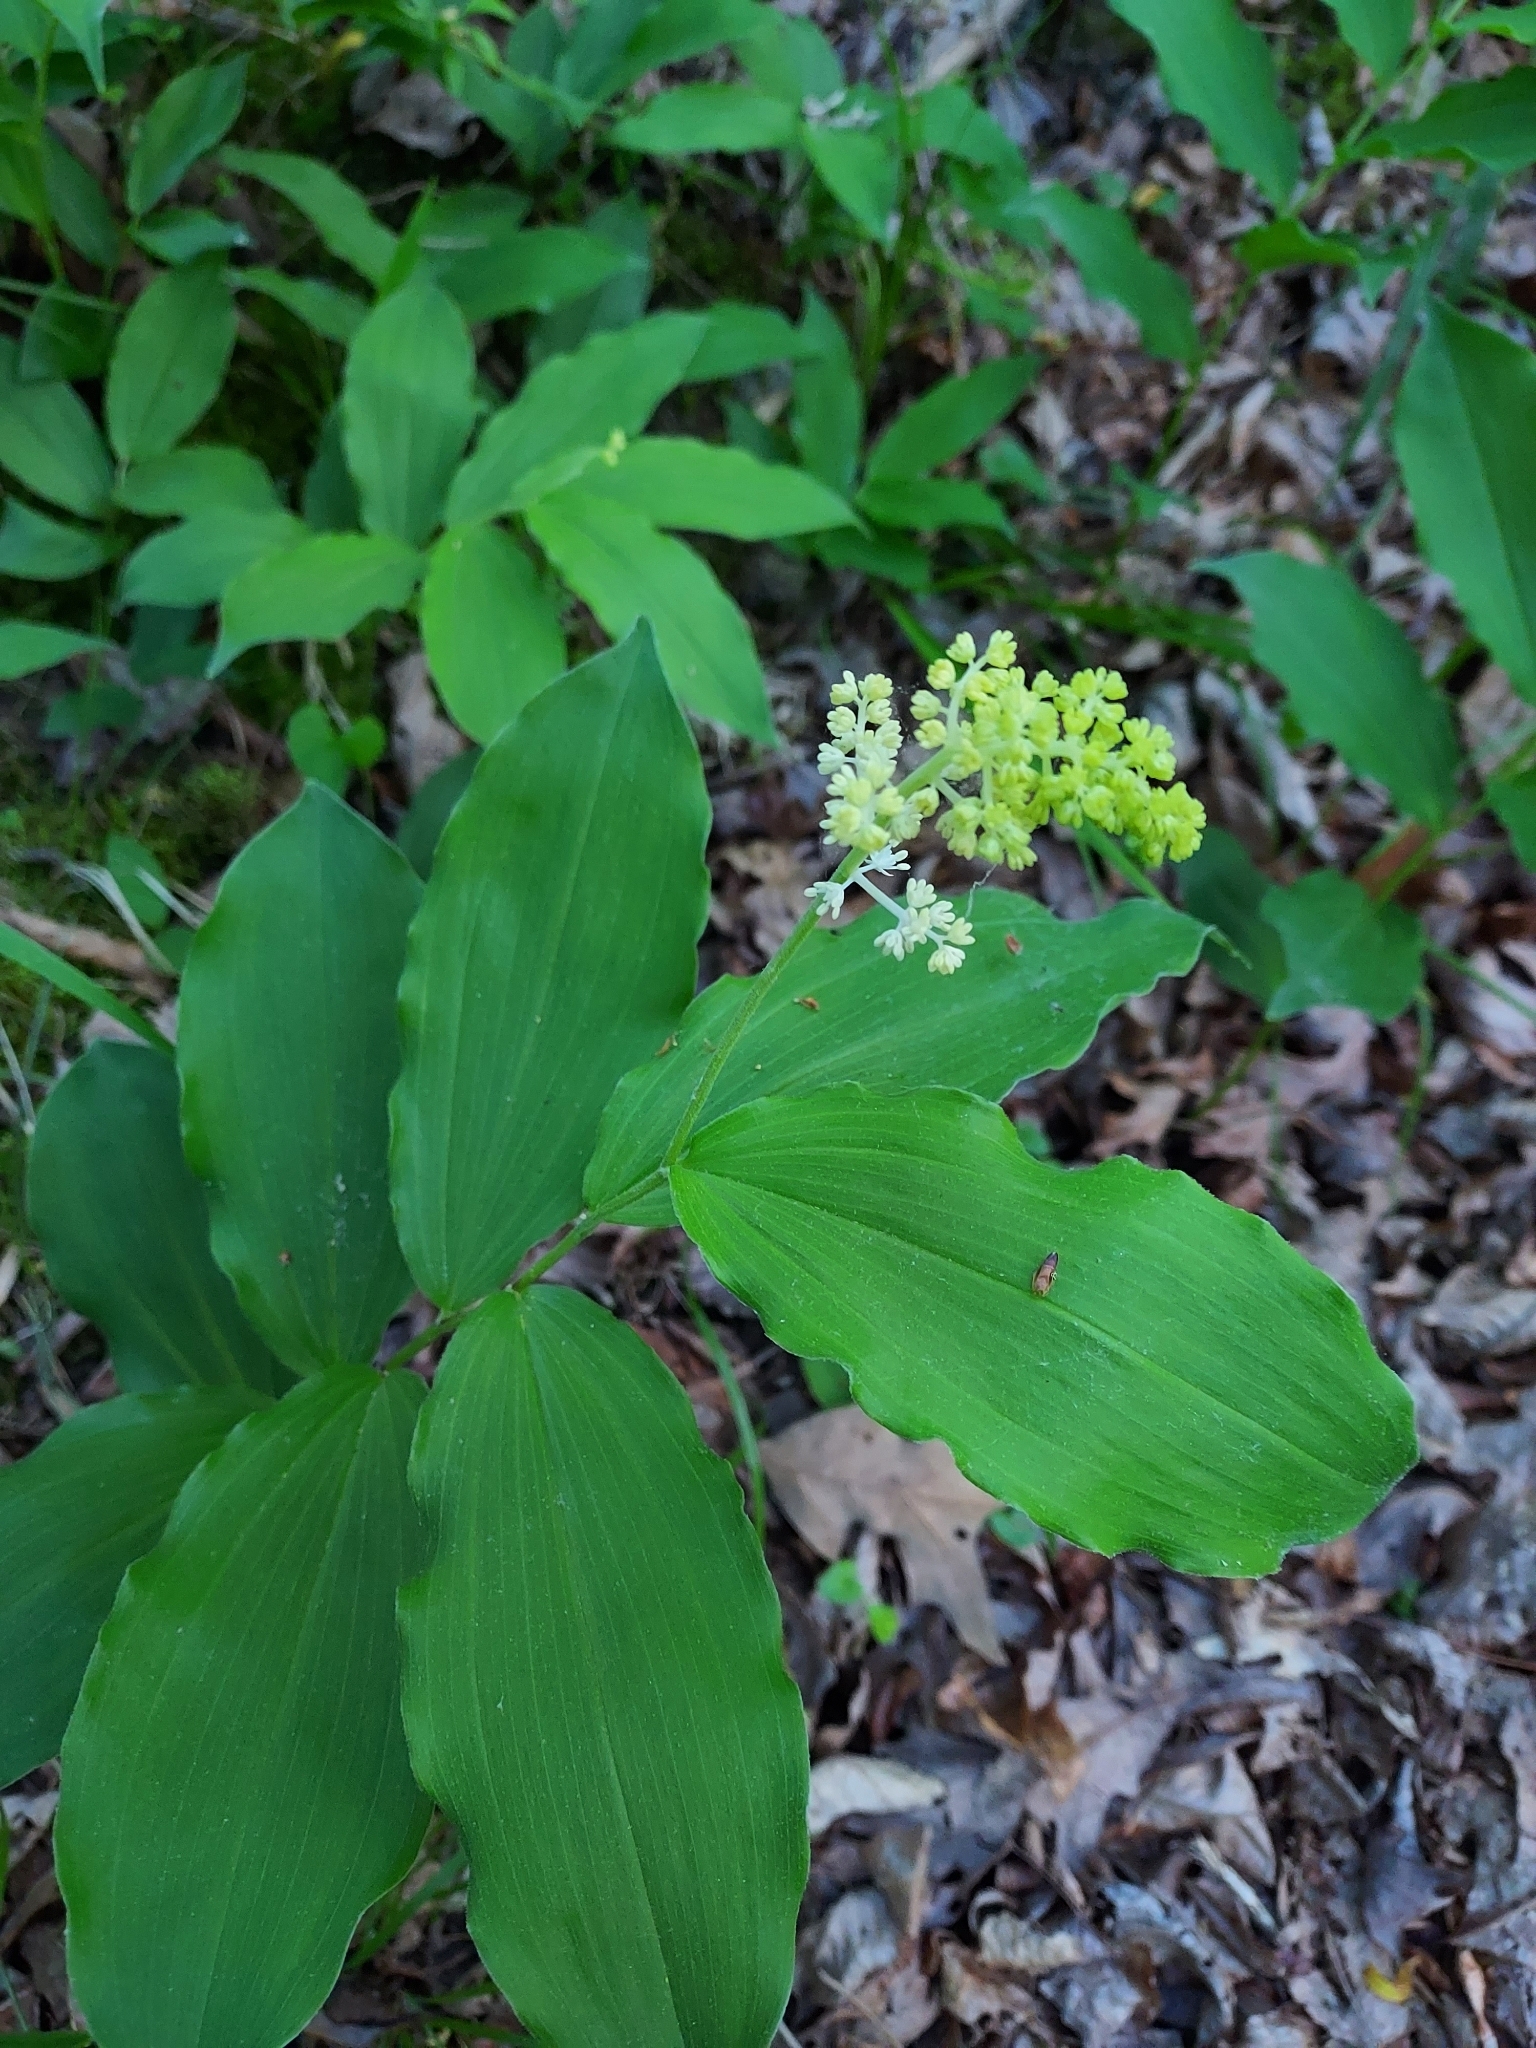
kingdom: Plantae
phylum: Tracheophyta
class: Liliopsida
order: Asparagales
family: Asparagaceae
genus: Maianthemum
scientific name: Maianthemum racemosum
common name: False spikenard
